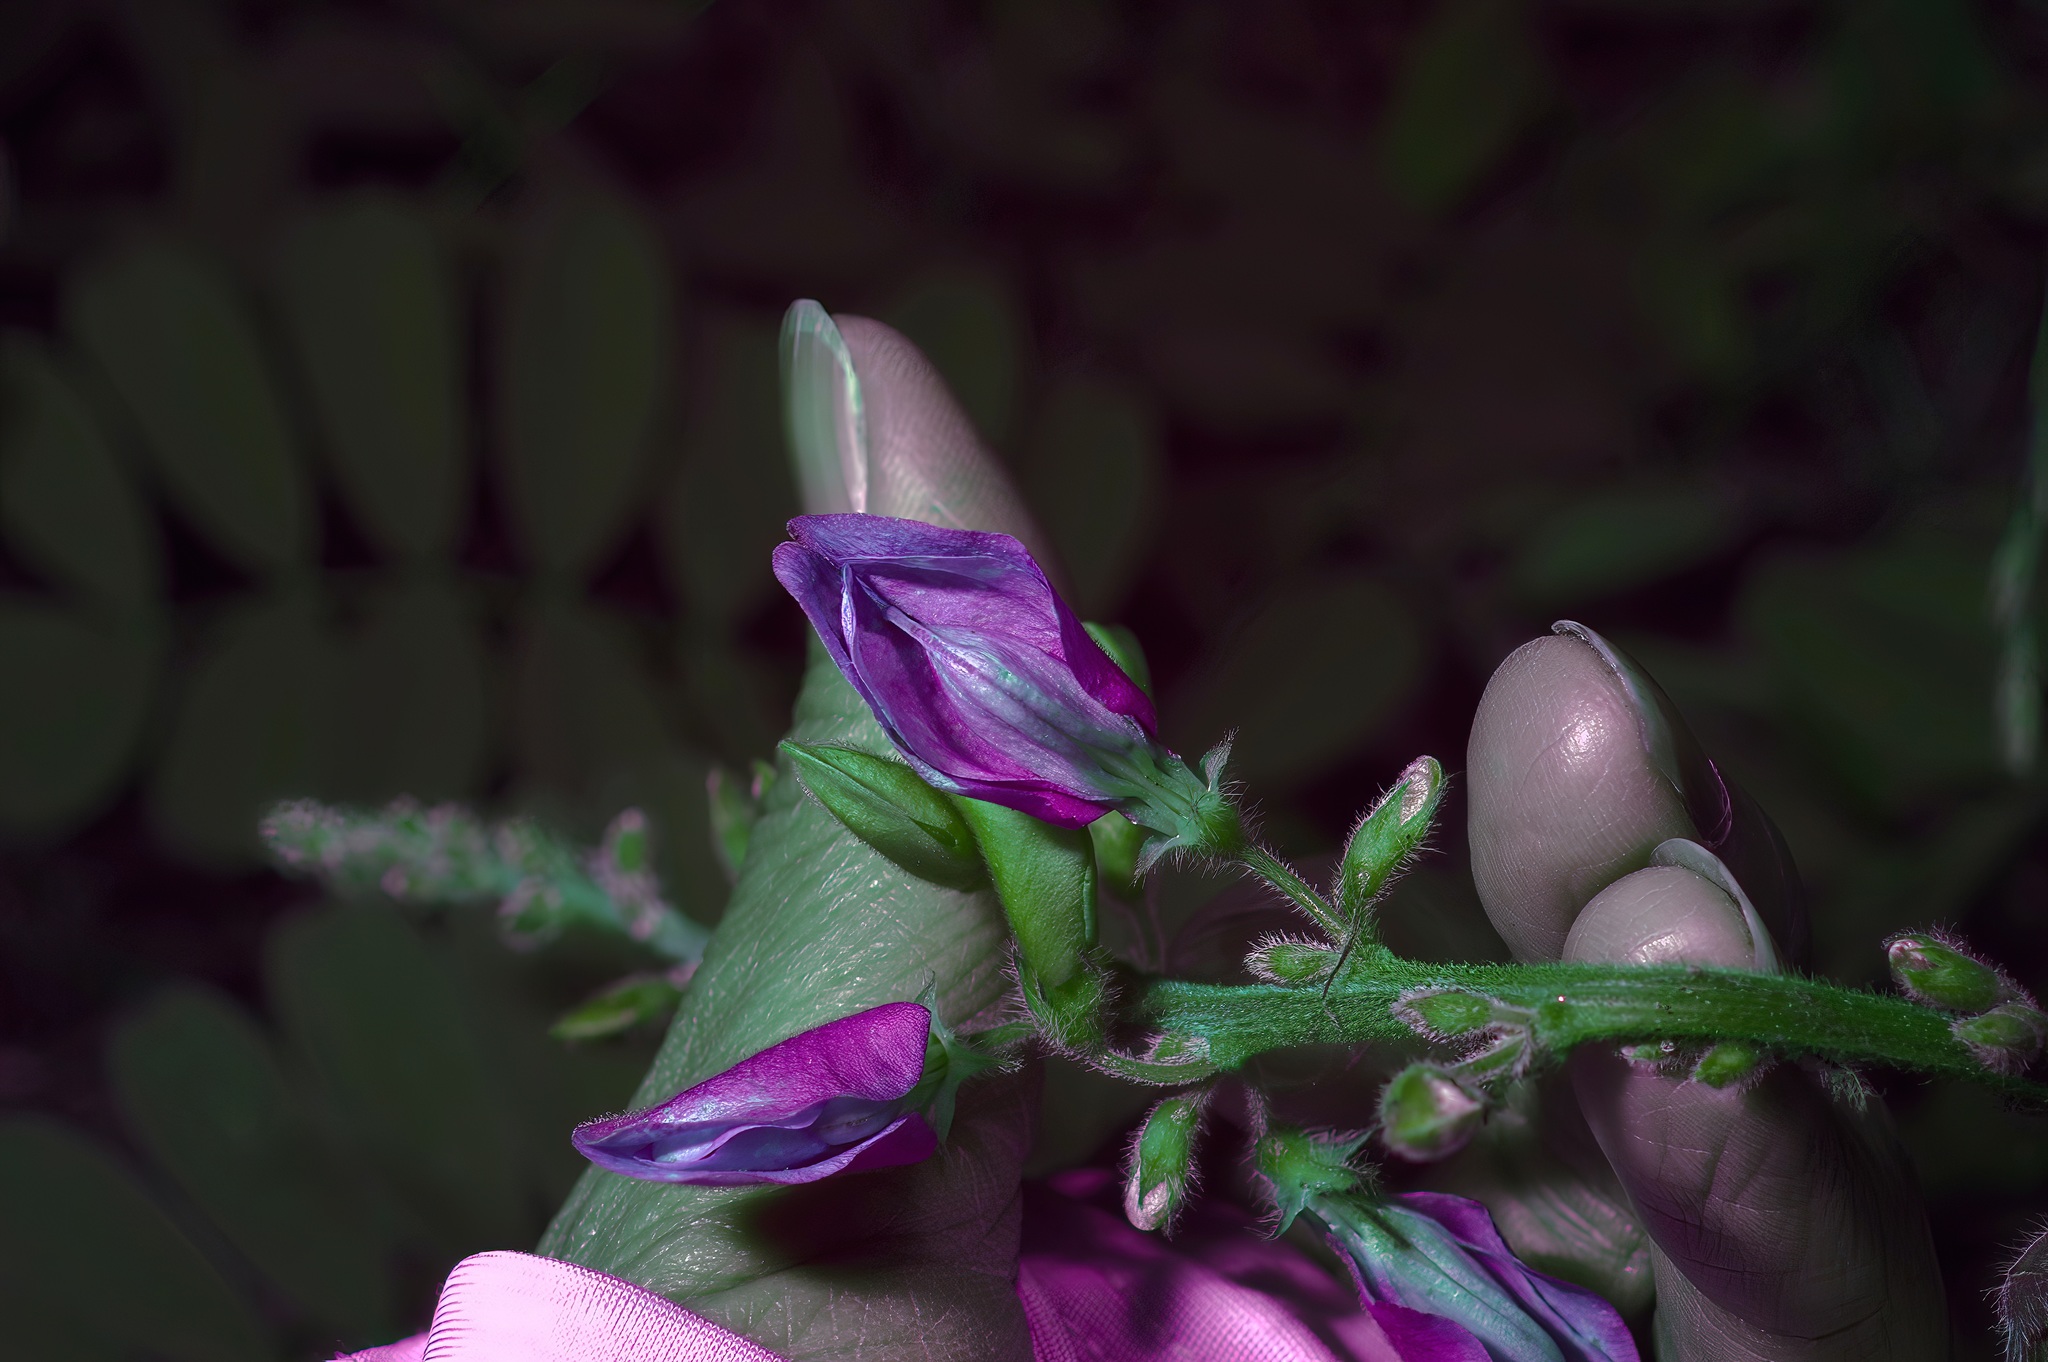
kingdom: Plantae
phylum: Tracheophyta
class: Magnoliopsida
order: Fabales
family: Fabaceae
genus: Tephrosia
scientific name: Tephrosia onobrychoides
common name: Multi-bloom hoary-pea
